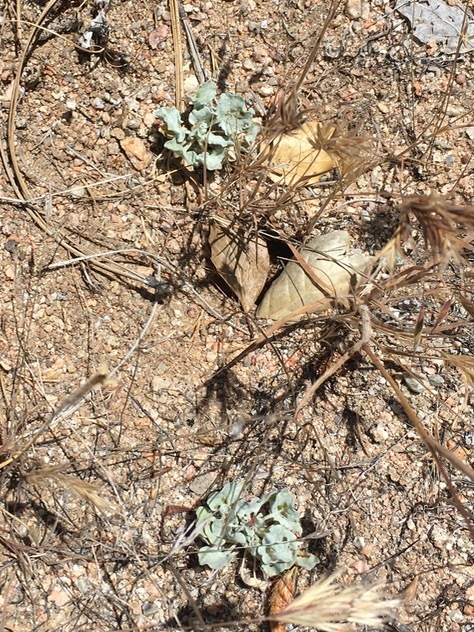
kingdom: Plantae
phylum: Tracheophyta
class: Magnoliopsida
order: Caryophyllales
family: Polygonaceae
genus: Eriogonum
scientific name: Eriogonum elegans
